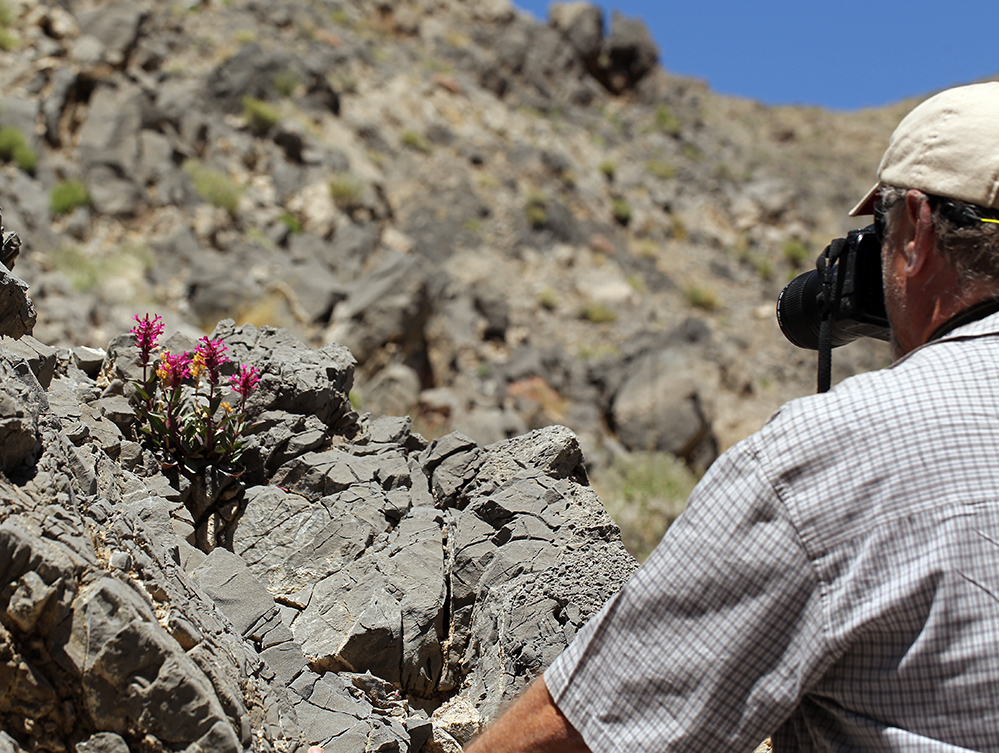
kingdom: Plantae
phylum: Tracheophyta
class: Magnoliopsida
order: Lamiales
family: Plantaginaceae
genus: Penstemon
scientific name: Penstemon calcareus
